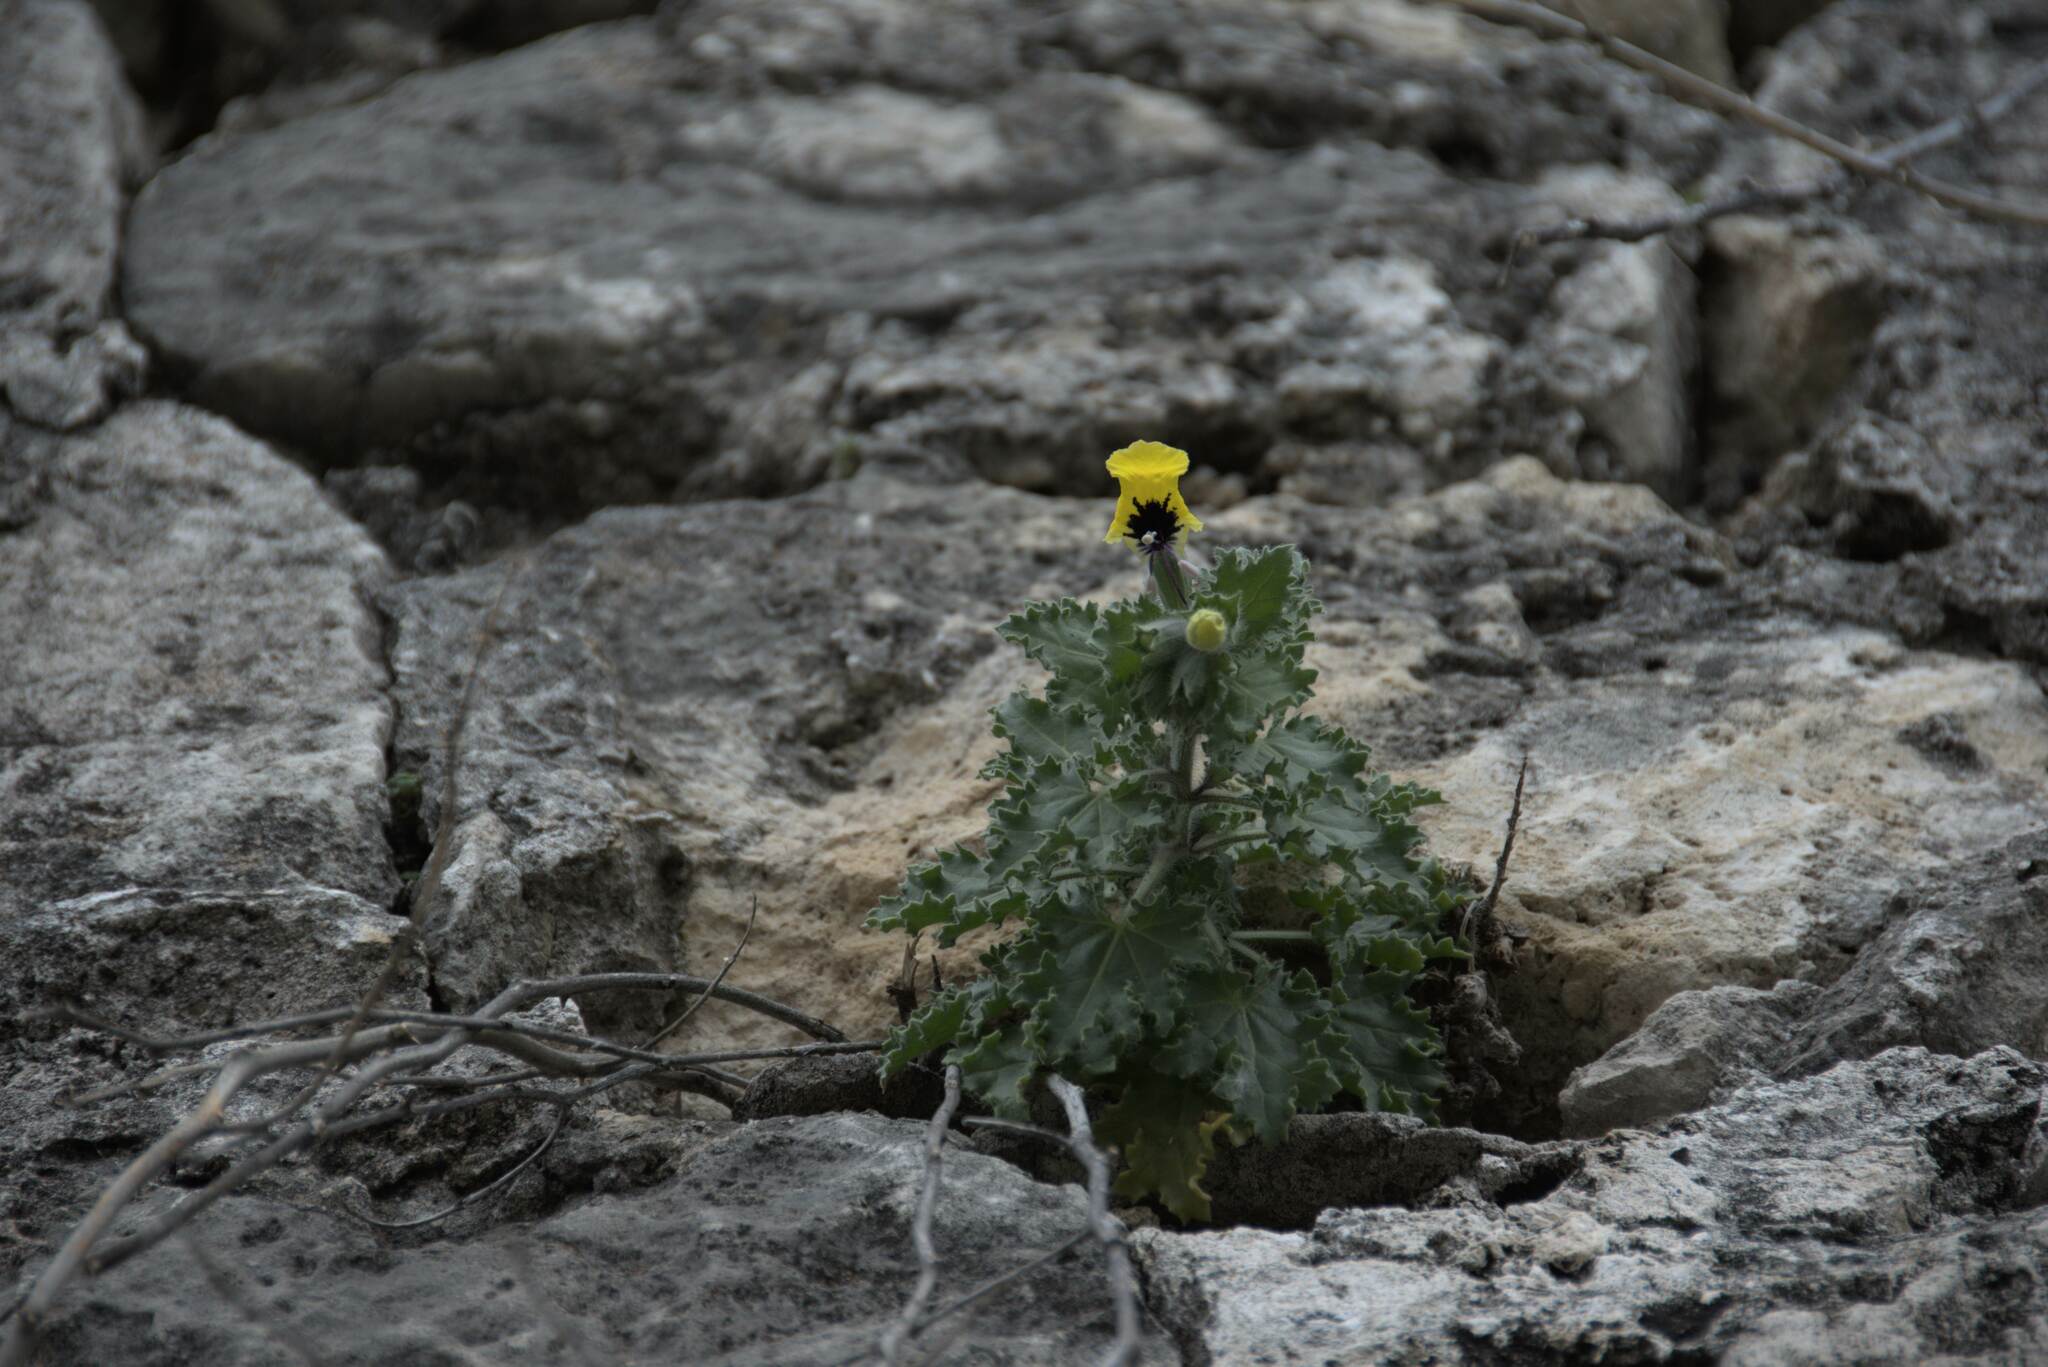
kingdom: Plantae
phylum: Tracheophyta
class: Magnoliopsida
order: Solanales
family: Solanaceae
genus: Hyoscyamus
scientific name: Hyoscyamus aureus
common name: Golden henbane
